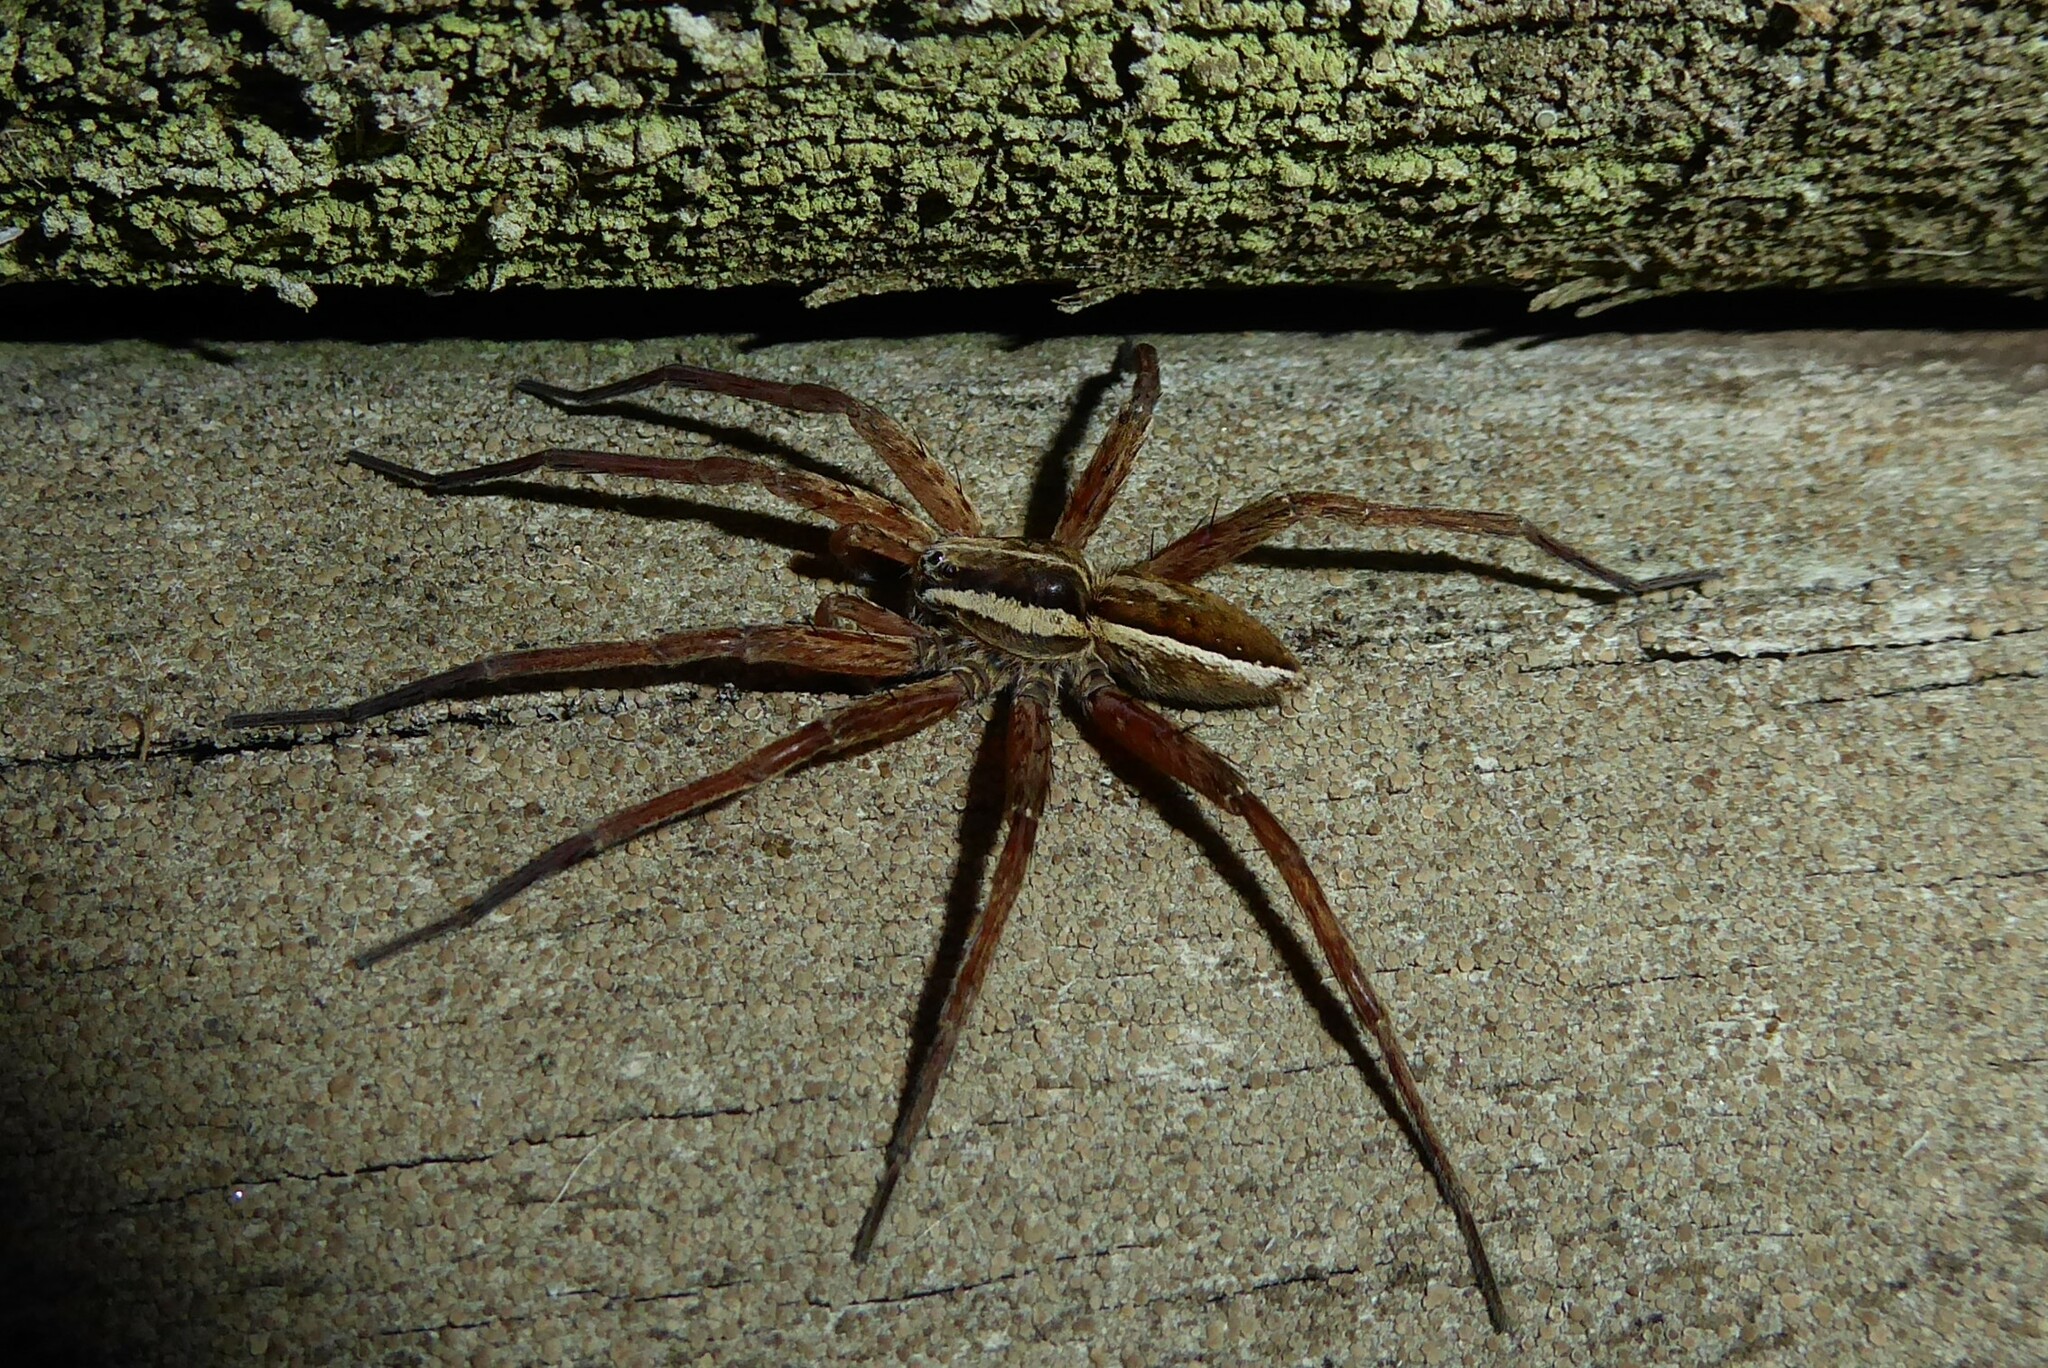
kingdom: Animalia
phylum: Arthropoda
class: Arachnida
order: Araneae
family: Pisauridae
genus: Dolomedes
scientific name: Dolomedes minor
